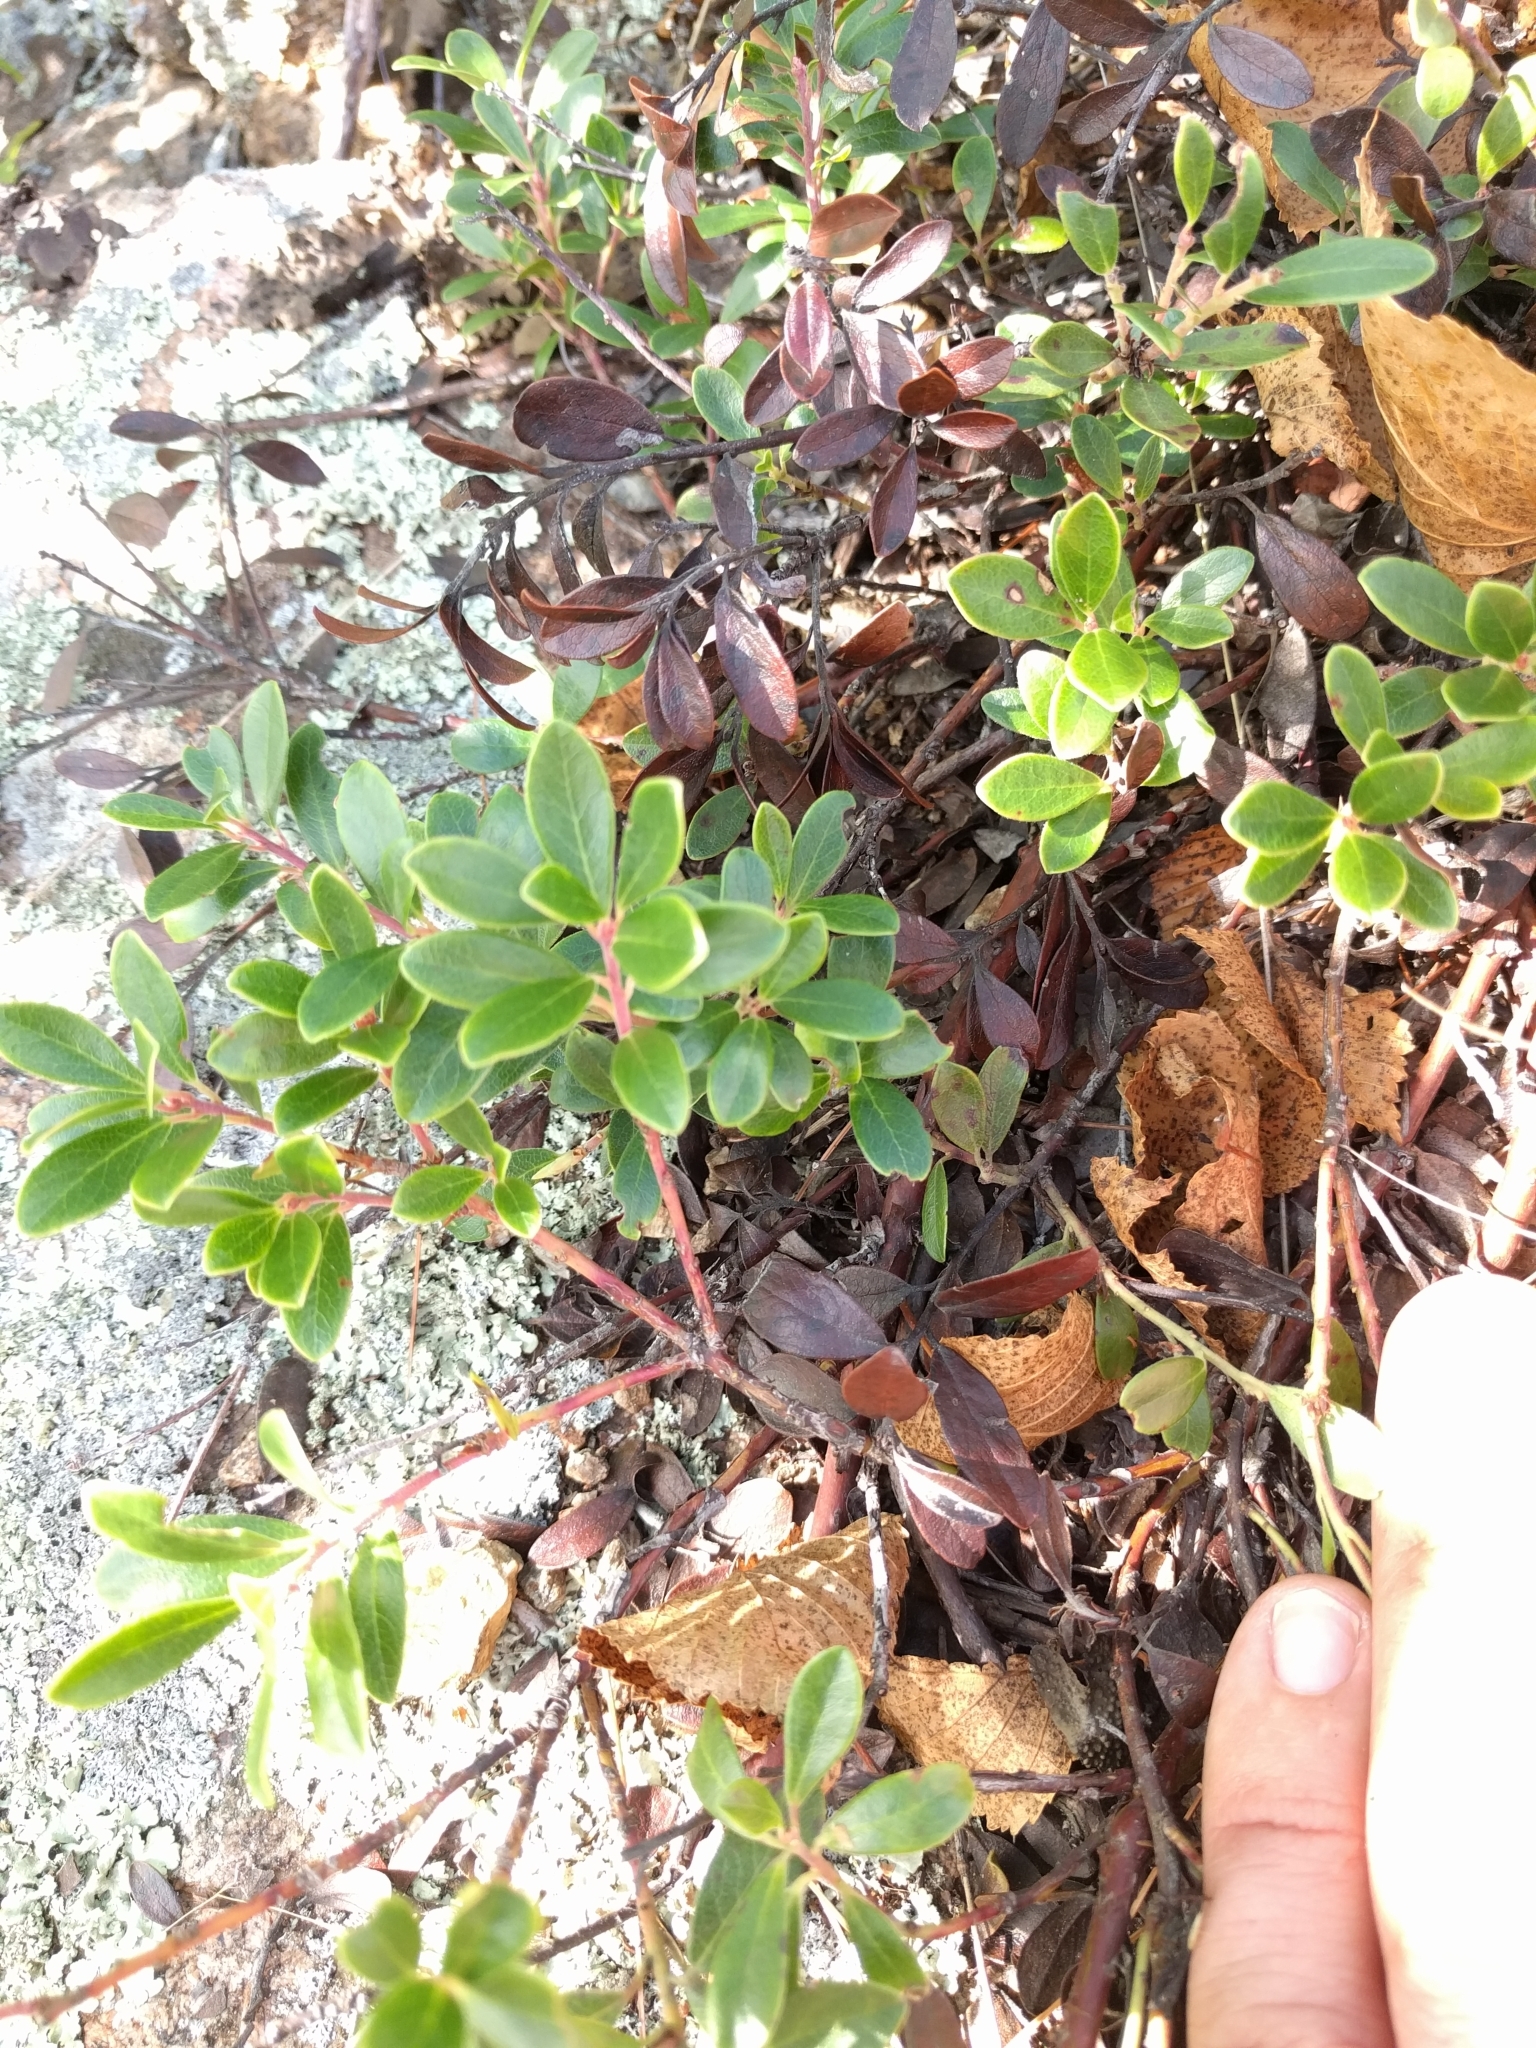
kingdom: Plantae
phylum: Tracheophyta
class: Magnoliopsida
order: Ericales
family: Ericaceae
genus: Arctostaphylos
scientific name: Arctostaphylos uva-ursi
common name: Bearberry
